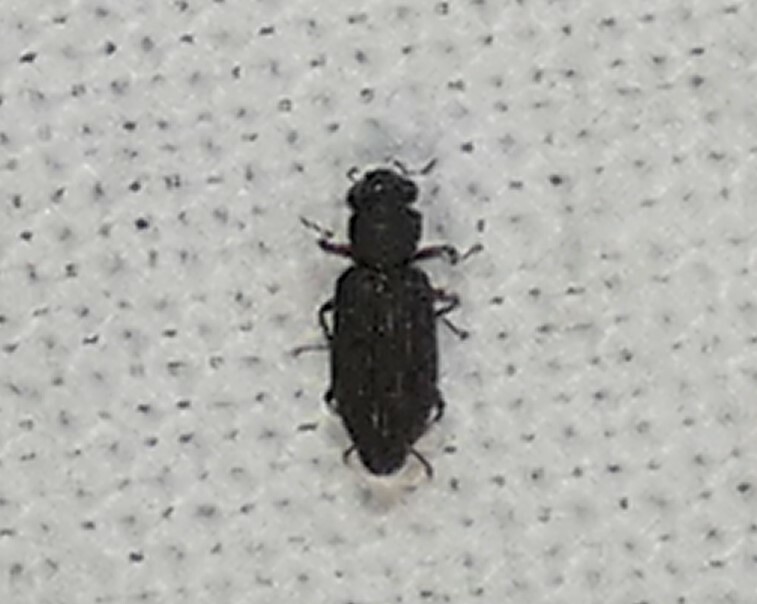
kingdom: Animalia
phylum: Arthropoda
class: Insecta
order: Coleoptera
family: Hydrochidae
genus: Hydrochus
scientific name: Hydrochus
